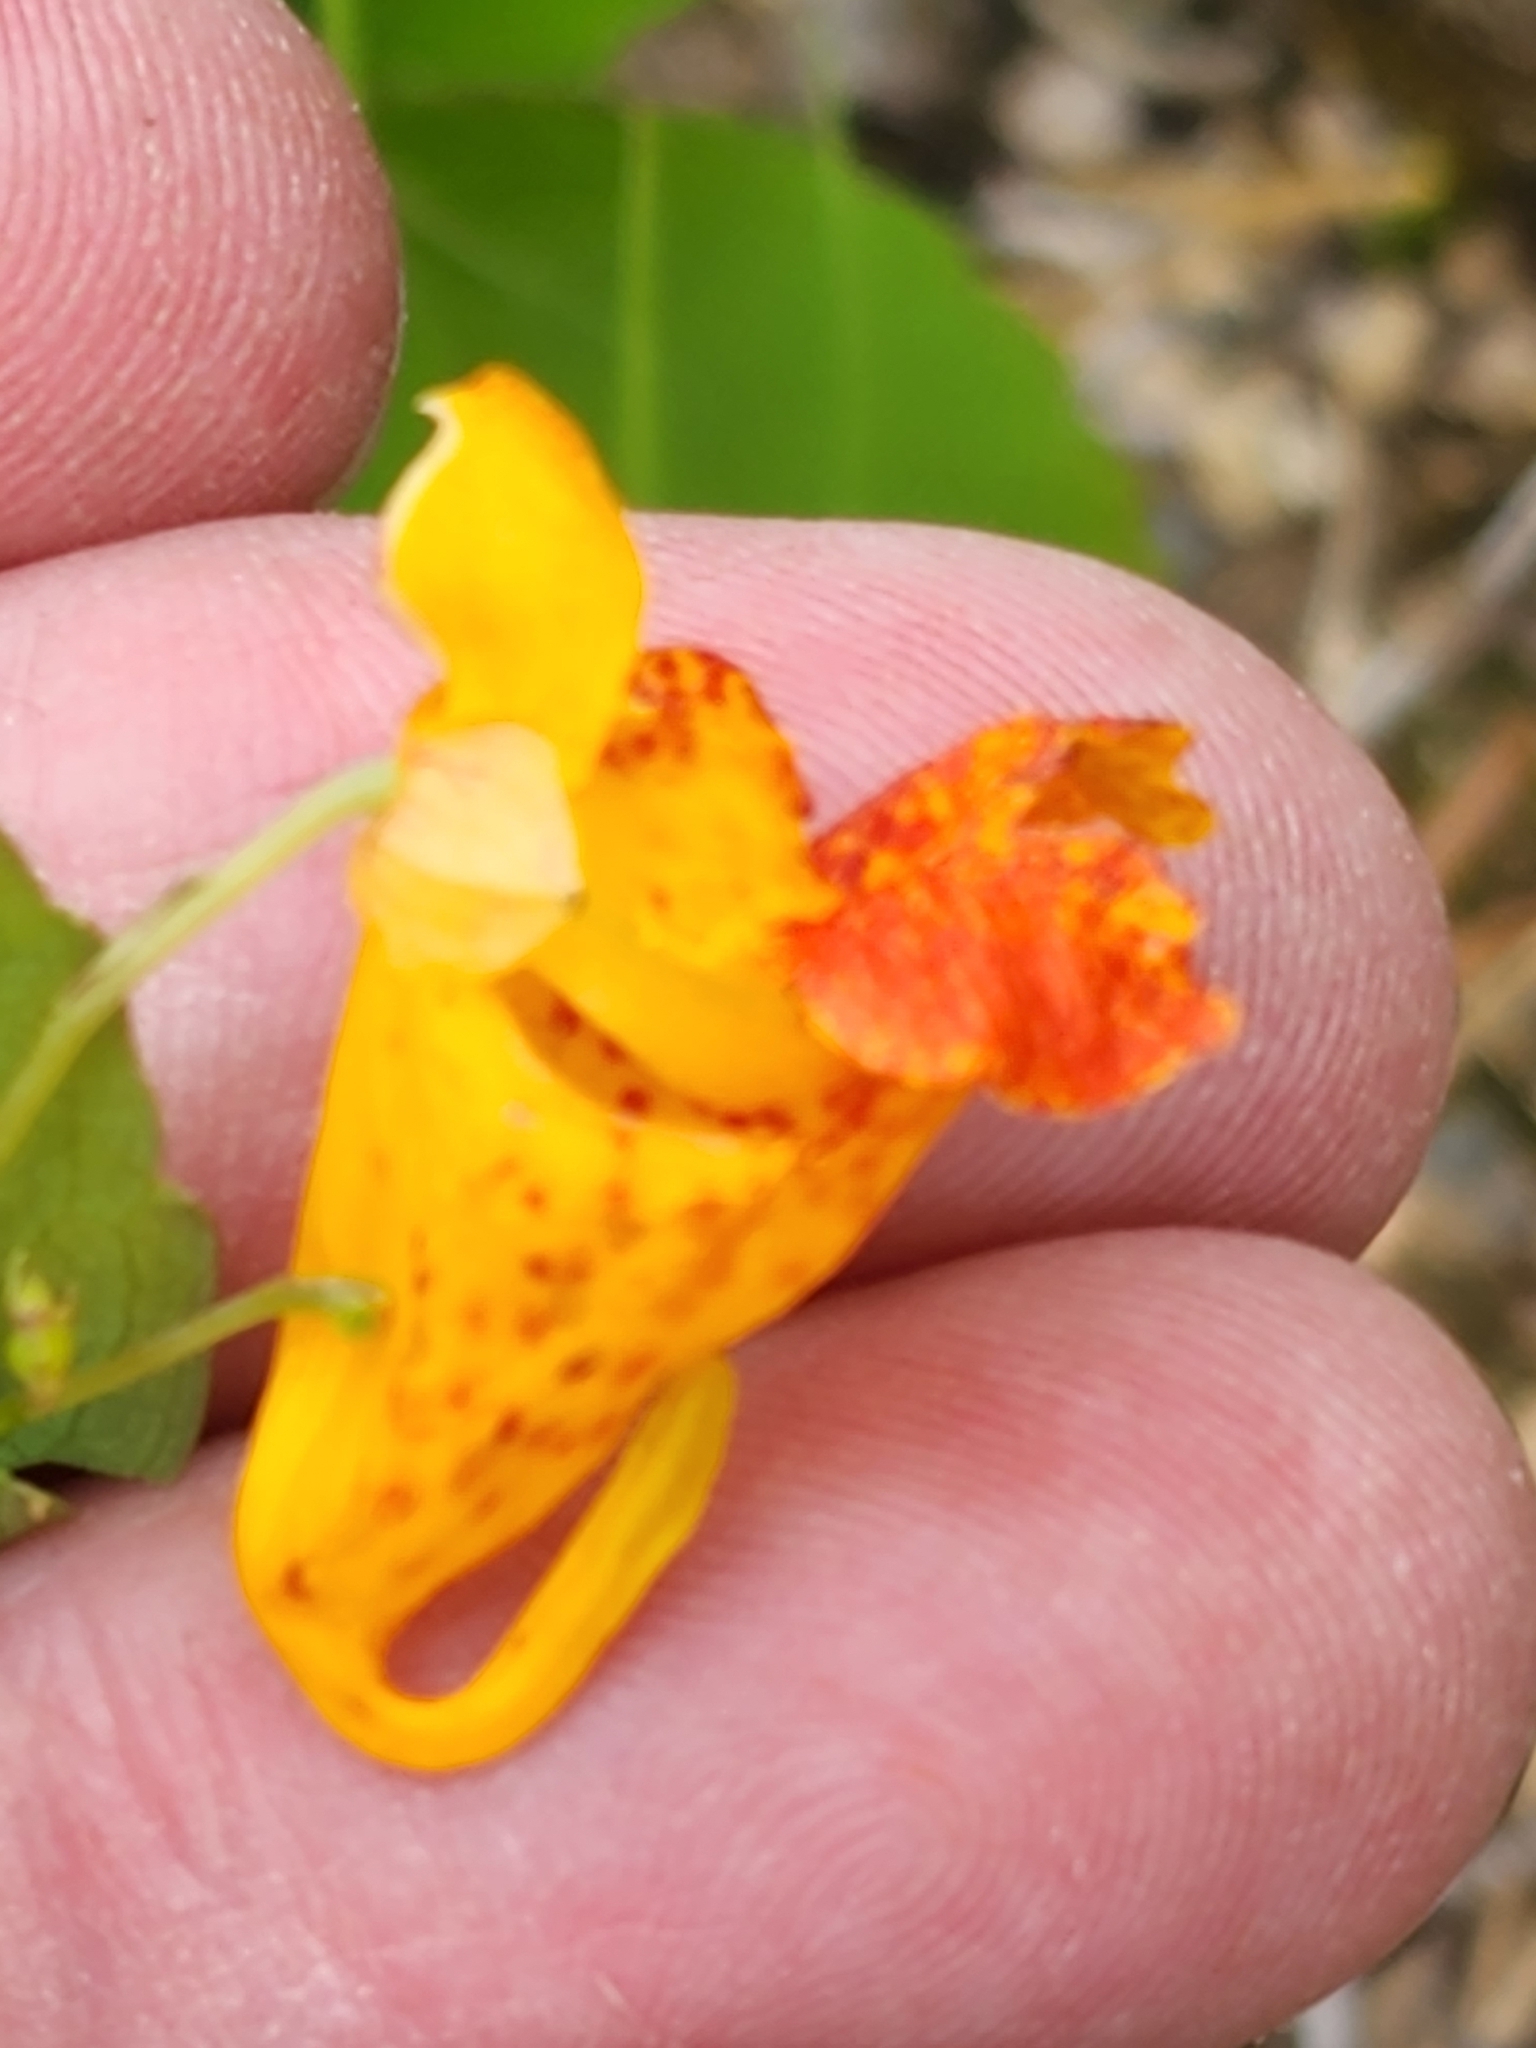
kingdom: Plantae
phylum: Tracheophyta
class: Magnoliopsida
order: Ericales
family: Balsaminaceae
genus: Impatiens
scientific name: Impatiens capensis
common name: Orange balsam
